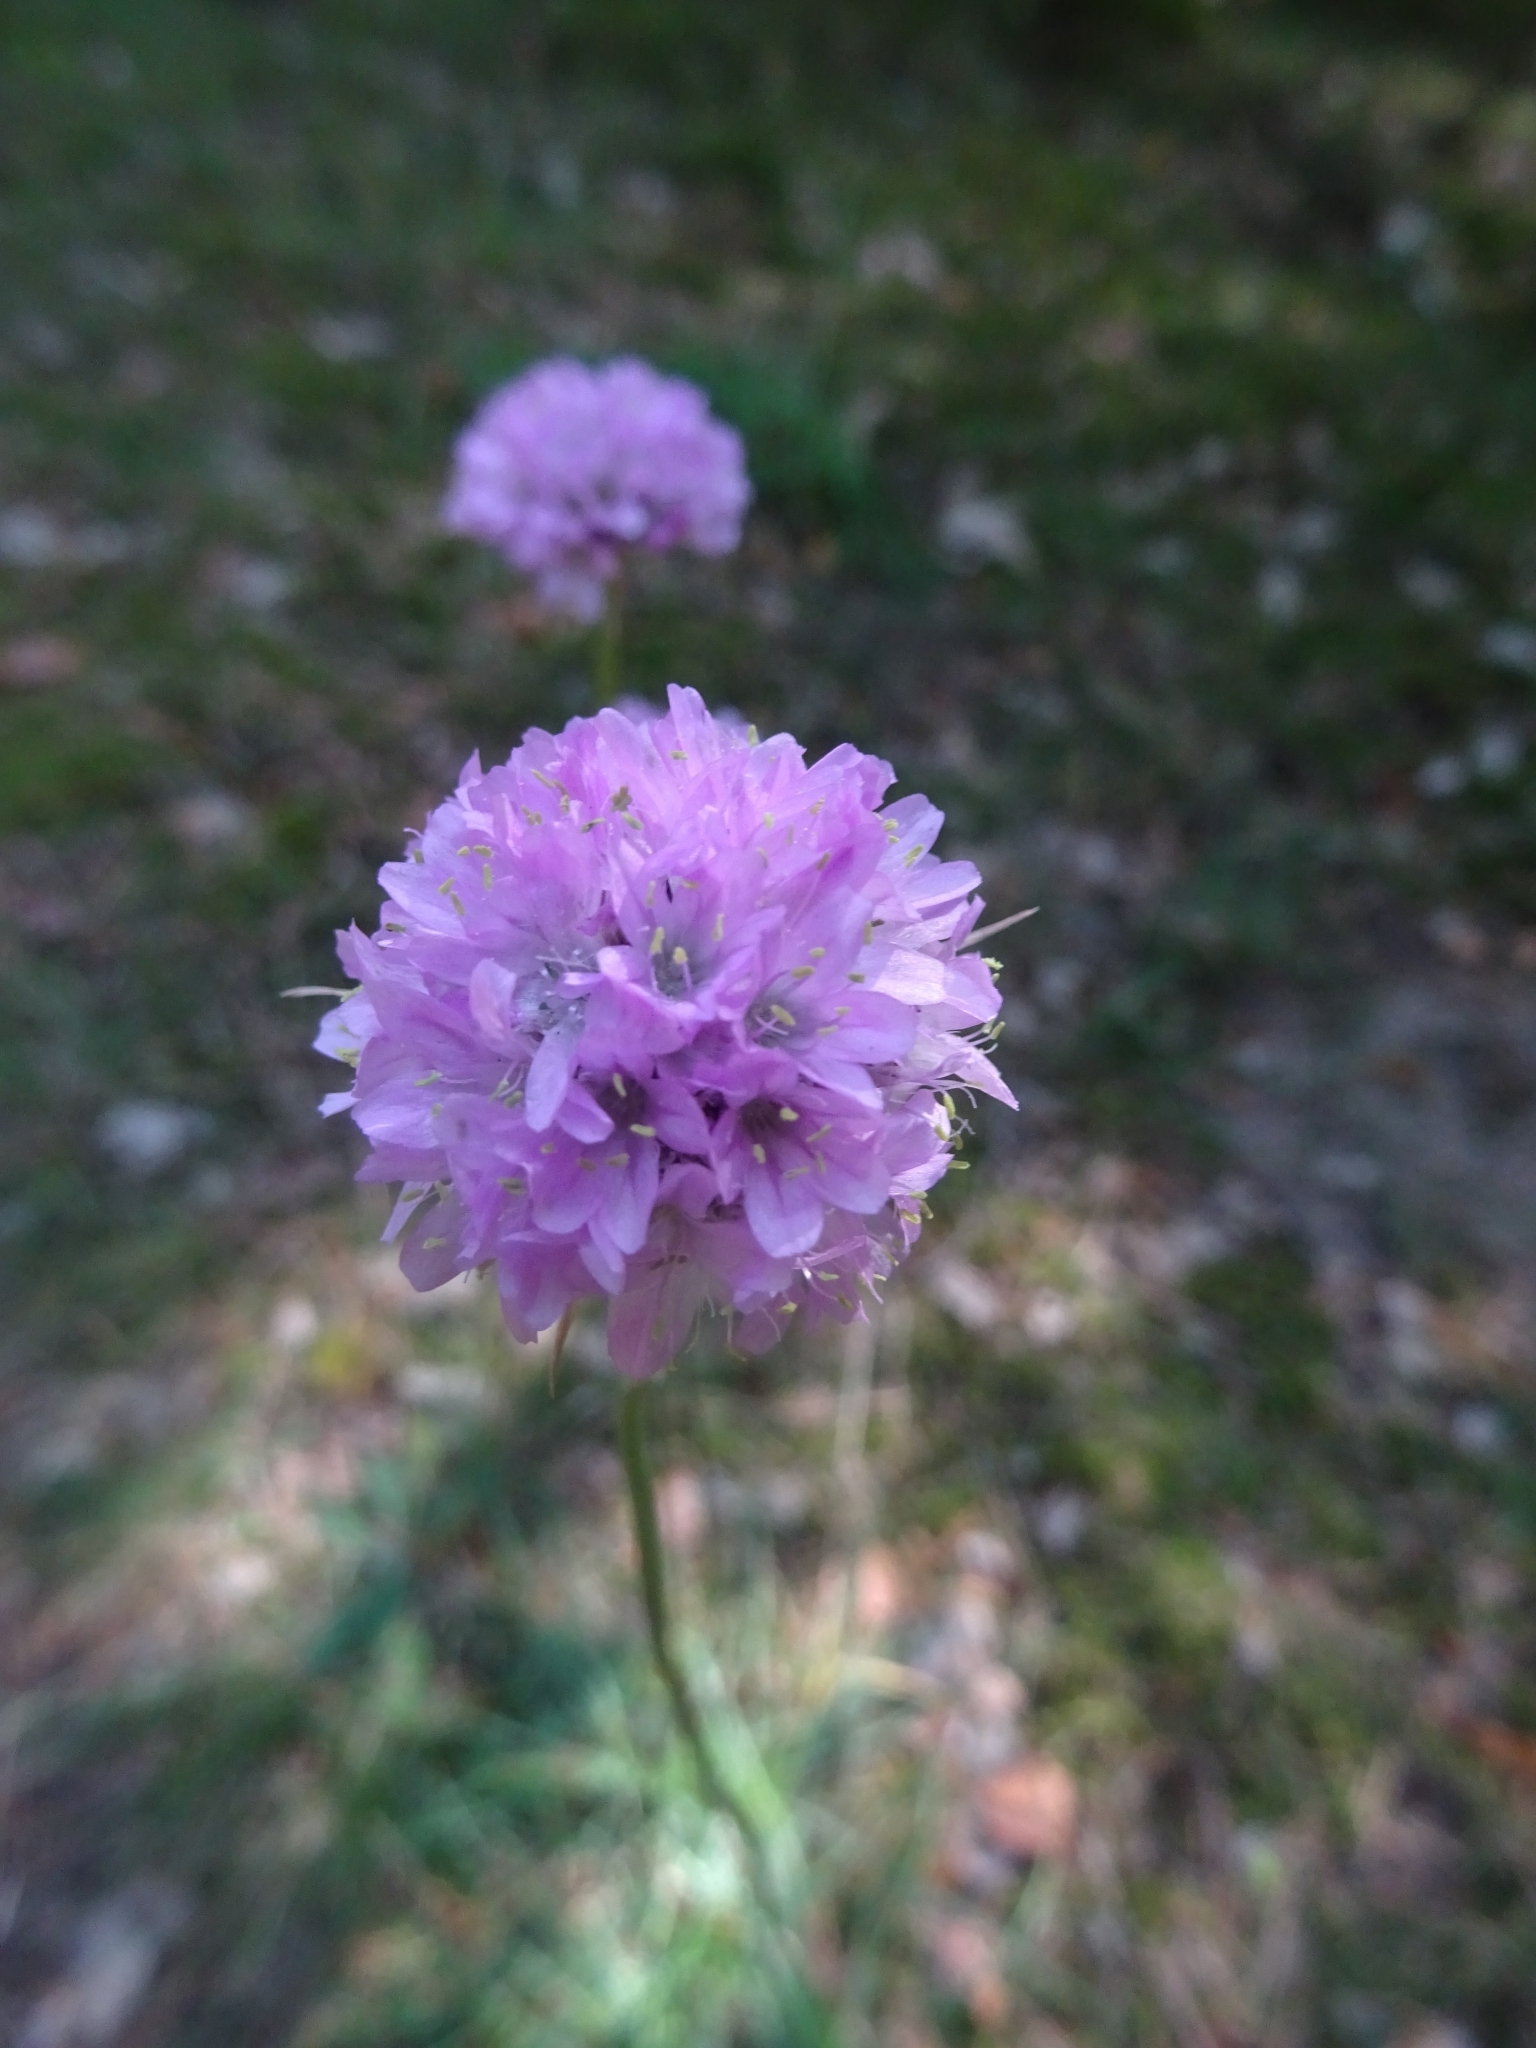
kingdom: Plantae
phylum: Tracheophyta
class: Magnoliopsida
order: Caryophyllales
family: Plumbaginaceae
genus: Armeria
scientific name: Armeria maritima
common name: Thrift
